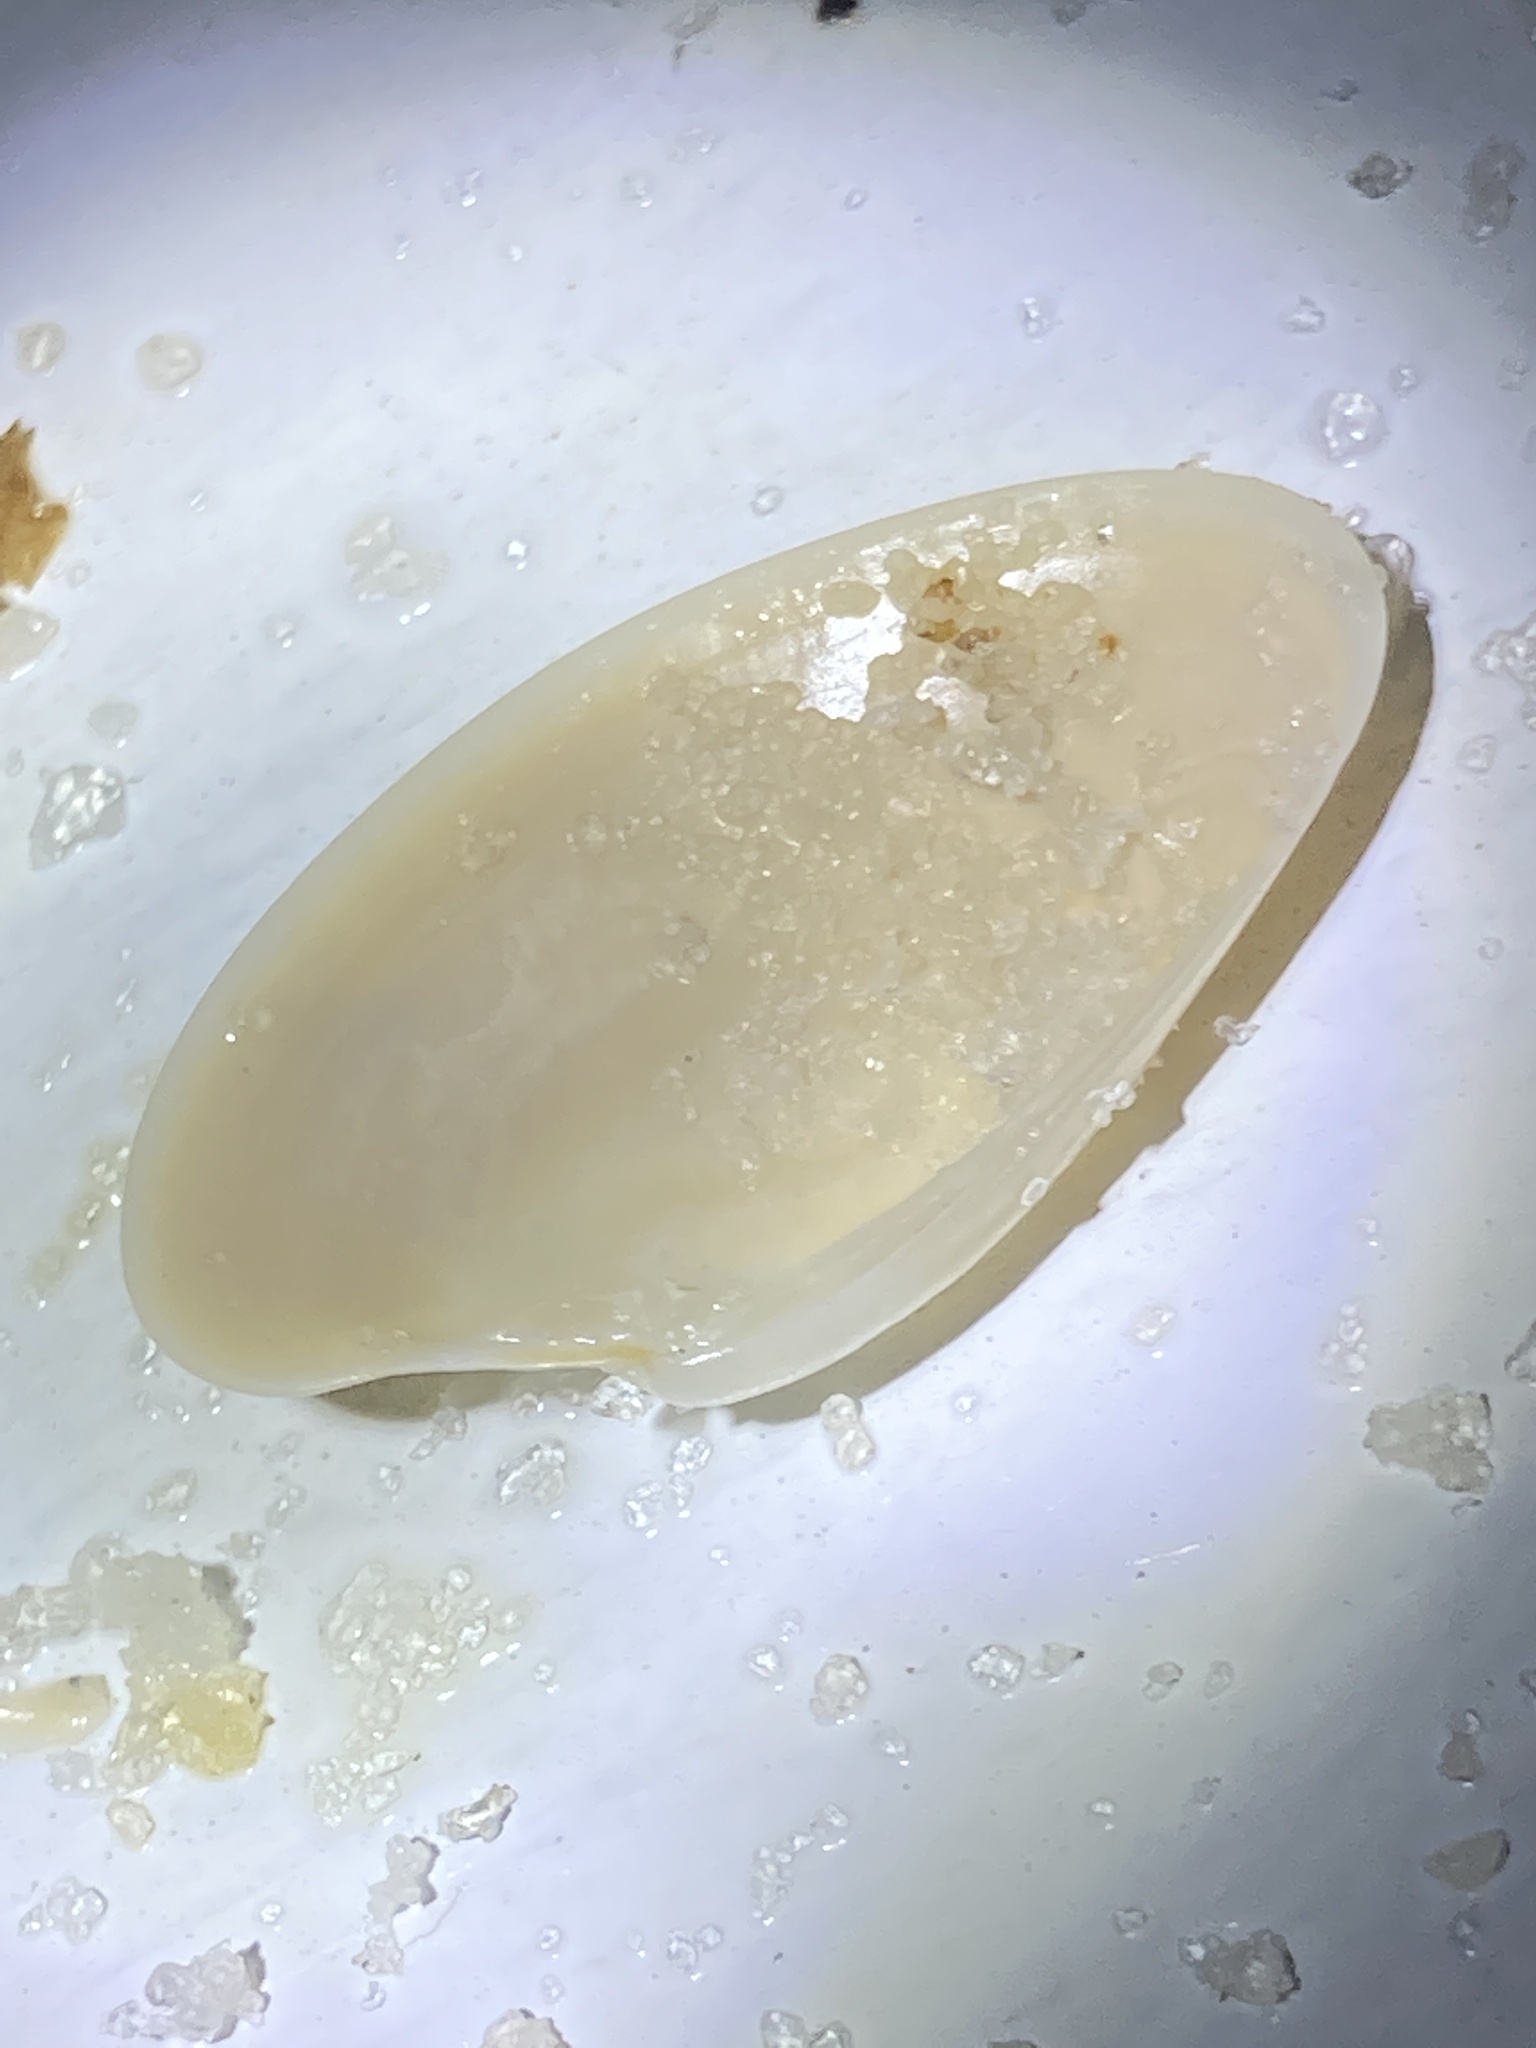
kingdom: Animalia
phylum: Mollusca
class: Bivalvia
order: Venerida
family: Veneridae
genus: Macrocallista
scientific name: Macrocallista nimbosa
